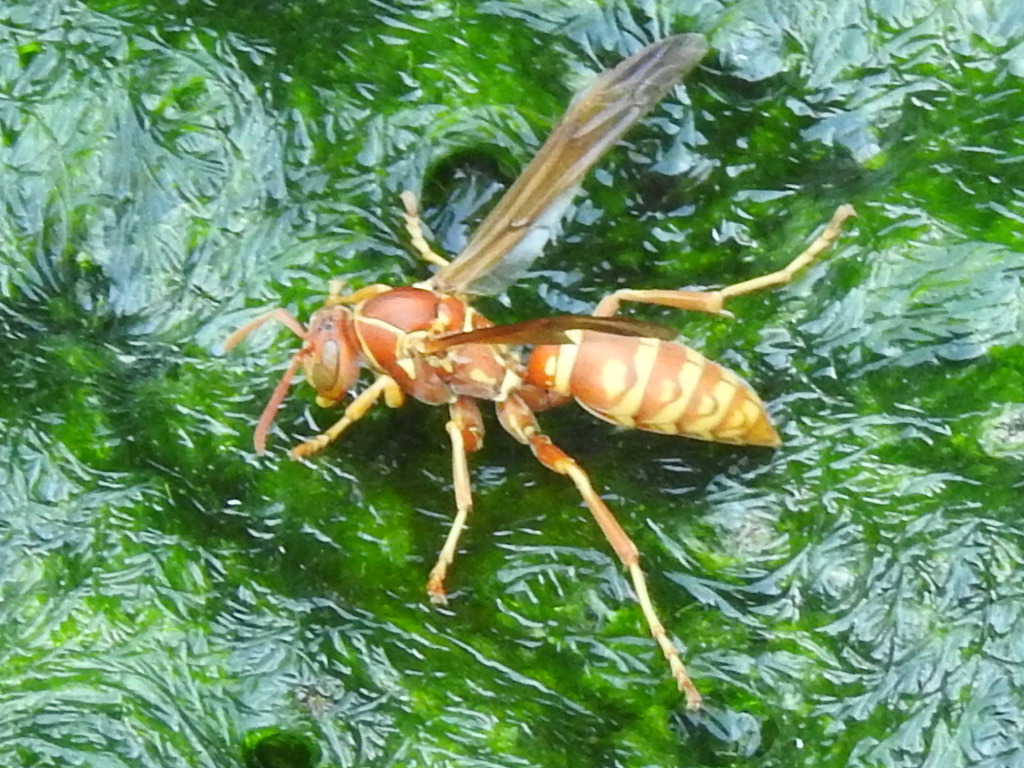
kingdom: Animalia
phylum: Arthropoda
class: Insecta
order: Hymenoptera
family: Eumenidae
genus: Polistes
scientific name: Polistes apachus
